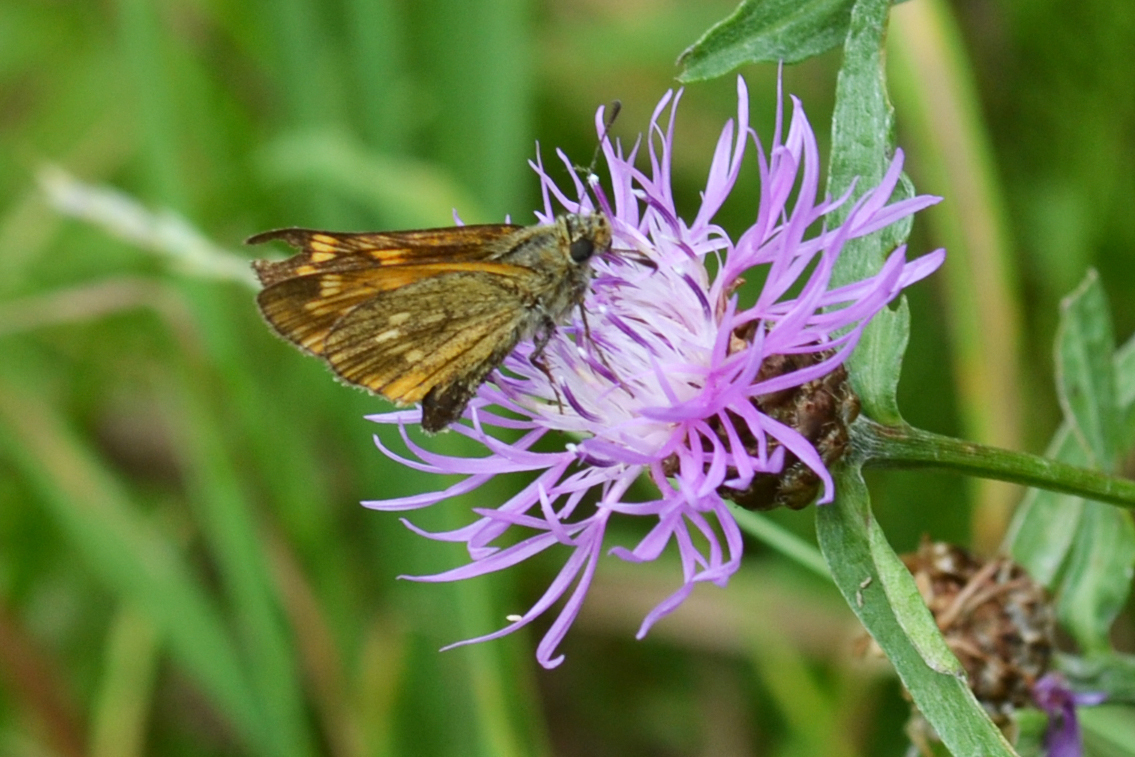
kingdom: Animalia
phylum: Arthropoda
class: Insecta
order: Lepidoptera
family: Hesperiidae
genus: Ochlodes
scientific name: Ochlodes venata
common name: Large skipper
